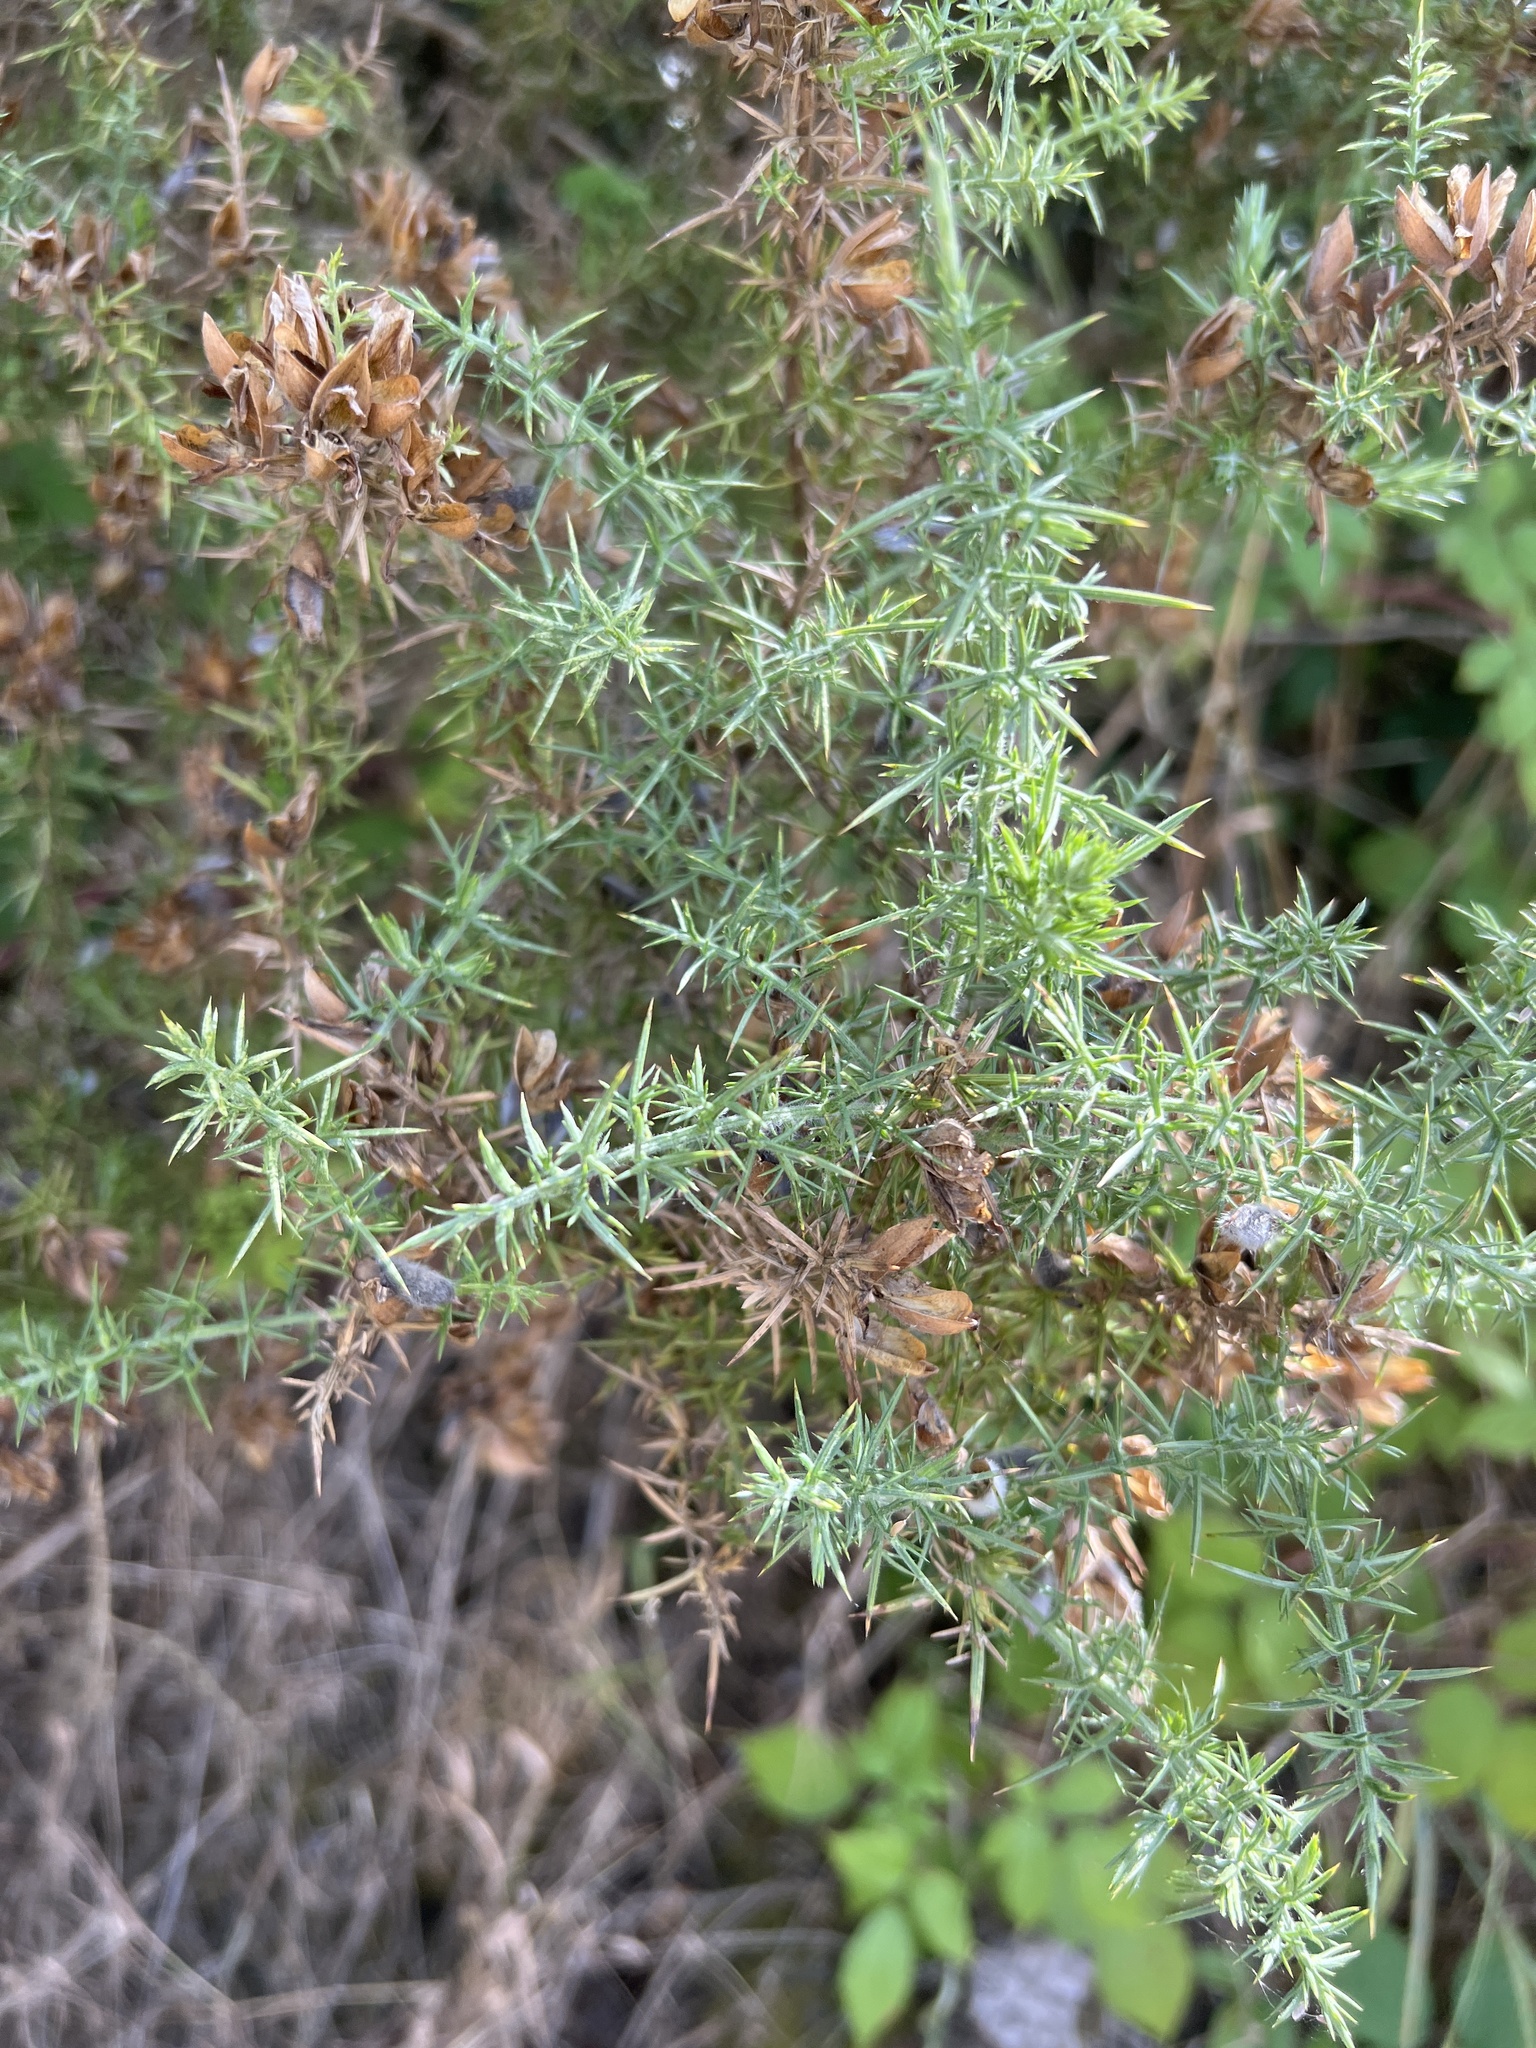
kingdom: Plantae
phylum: Tracheophyta
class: Magnoliopsida
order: Fabales
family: Fabaceae
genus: Ulex
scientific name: Ulex europaeus
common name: Common gorse
